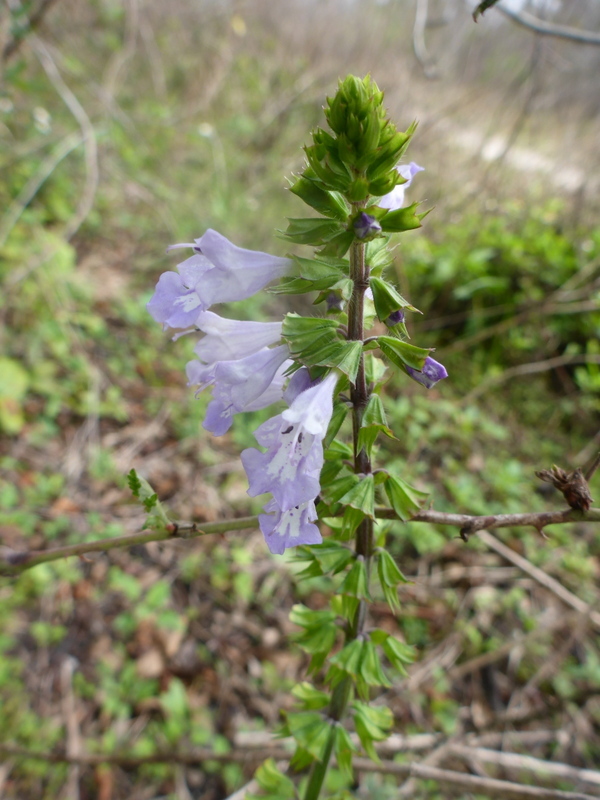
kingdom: Plantae
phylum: Tracheophyta
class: Magnoliopsida
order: Lamiales
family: Lamiaceae
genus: Salvia
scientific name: Salvia lyrata
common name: Cancerweed
